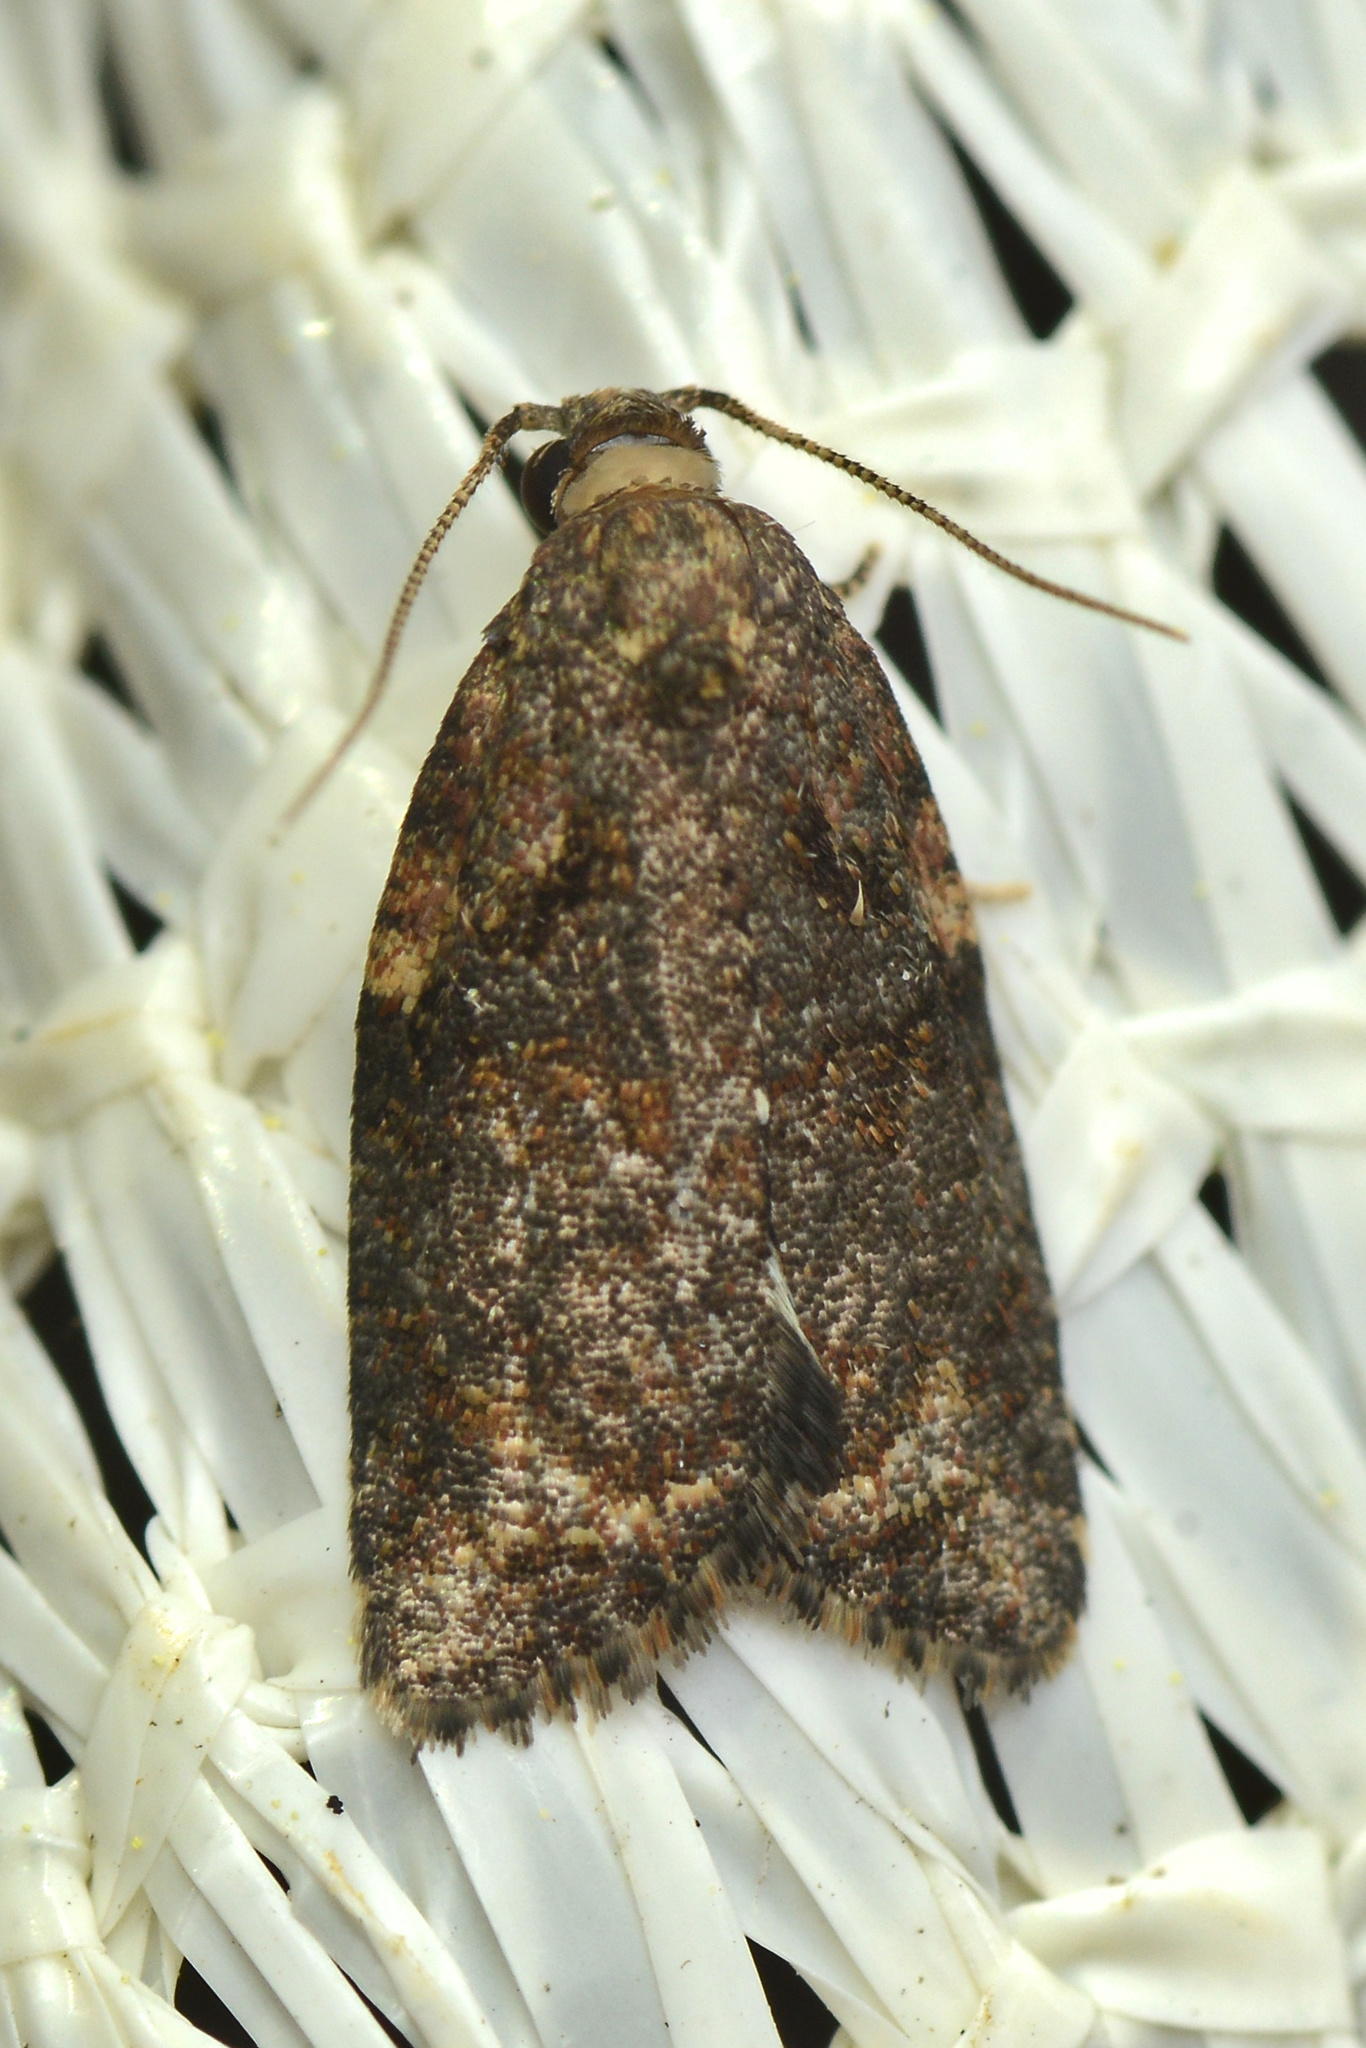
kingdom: Animalia
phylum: Arthropoda
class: Insecta
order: Lepidoptera
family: Tortricidae
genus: Capua
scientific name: Capua intractana
